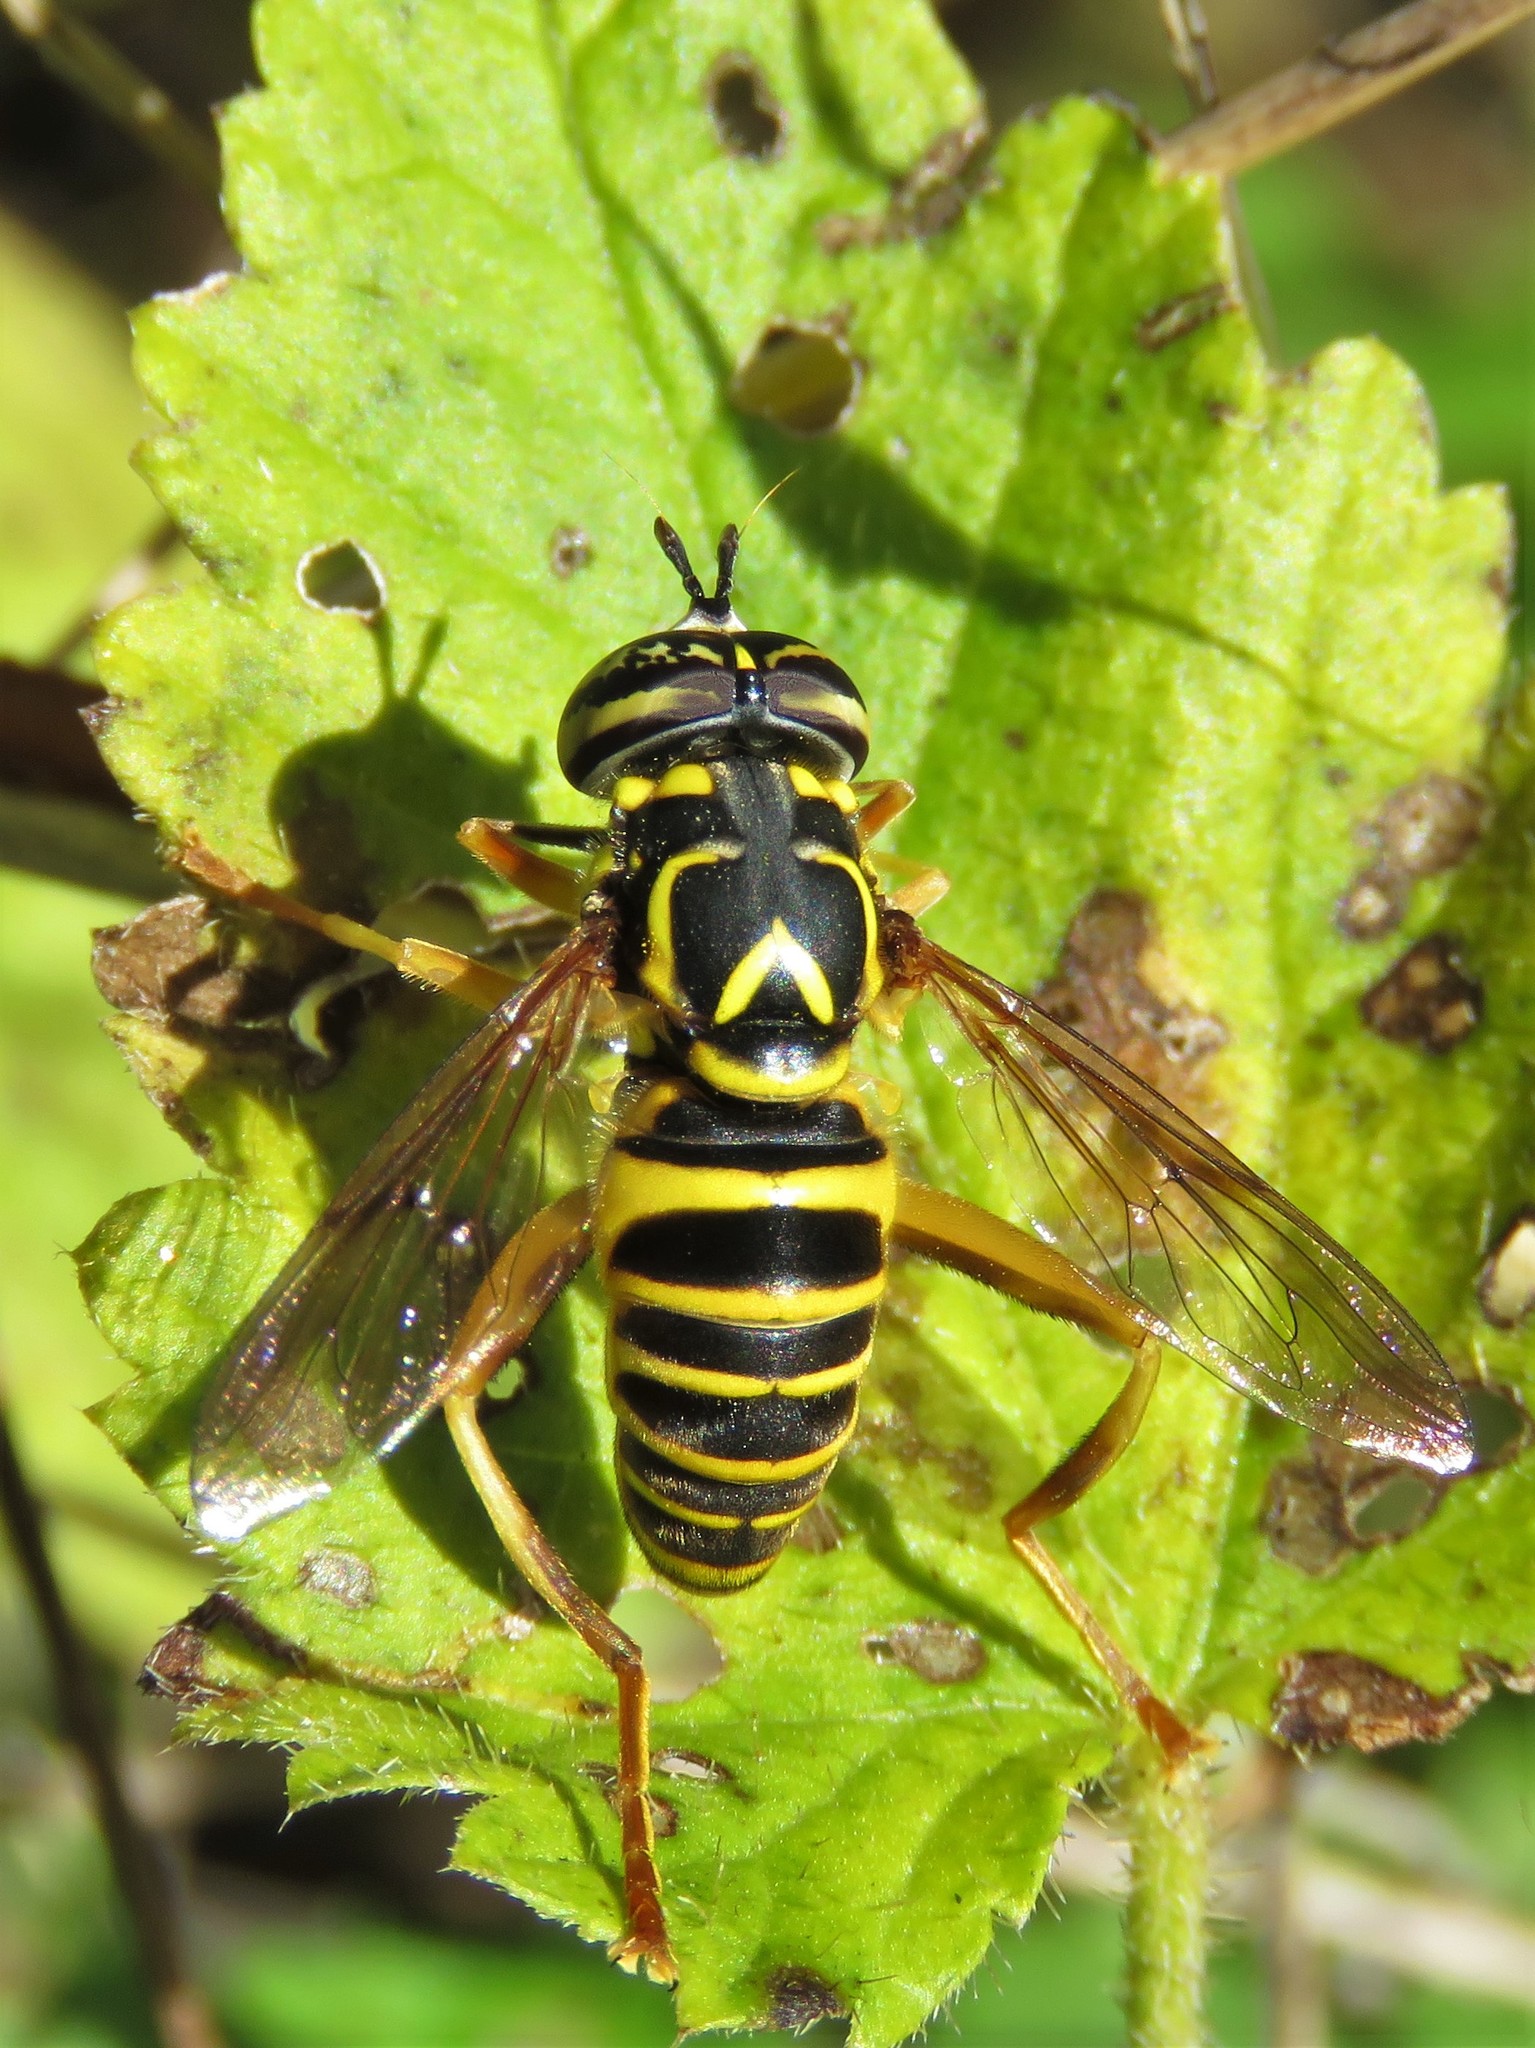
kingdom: Animalia
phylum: Arthropoda
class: Insecta
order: Diptera
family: Syrphidae
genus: Spilomyia
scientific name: Spilomyia longicornis
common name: Eastern hornet fly
